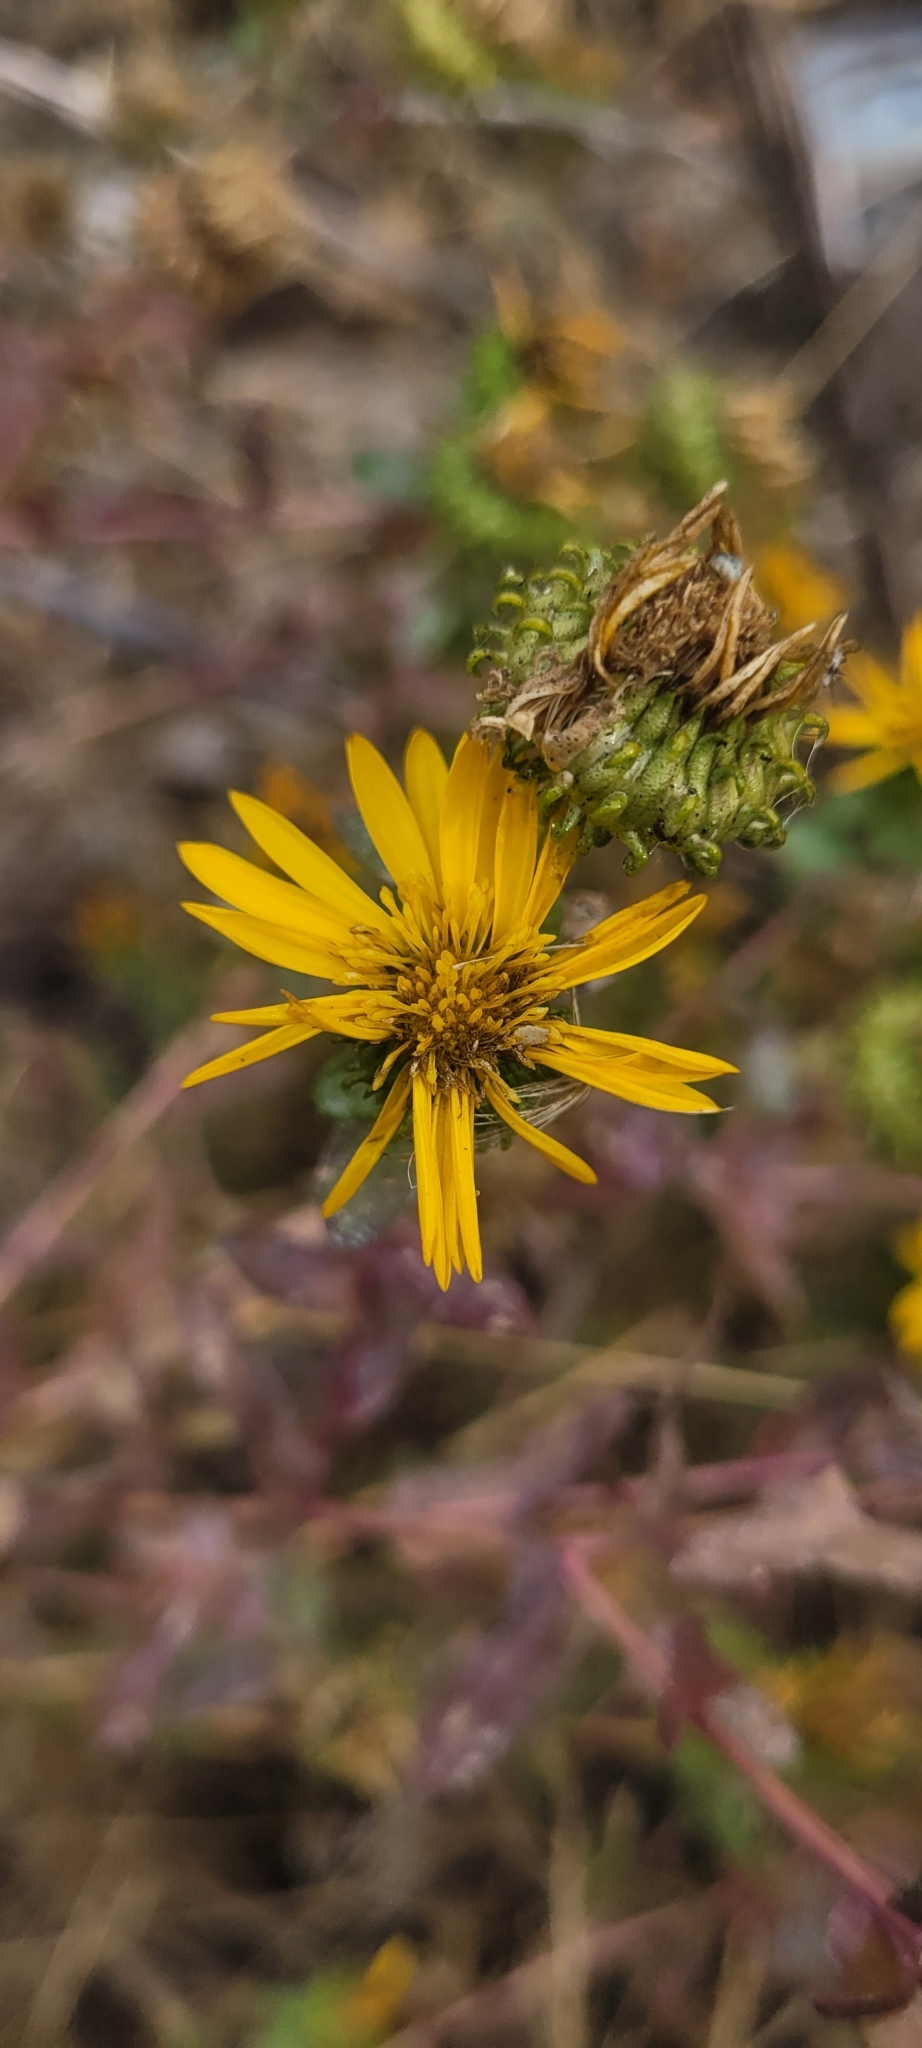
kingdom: Plantae
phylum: Tracheophyta
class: Magnoliopsida
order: Asterales
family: Asteraceae
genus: Grindelia
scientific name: Grindelia squarrosa
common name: Curly-cup gumweed
